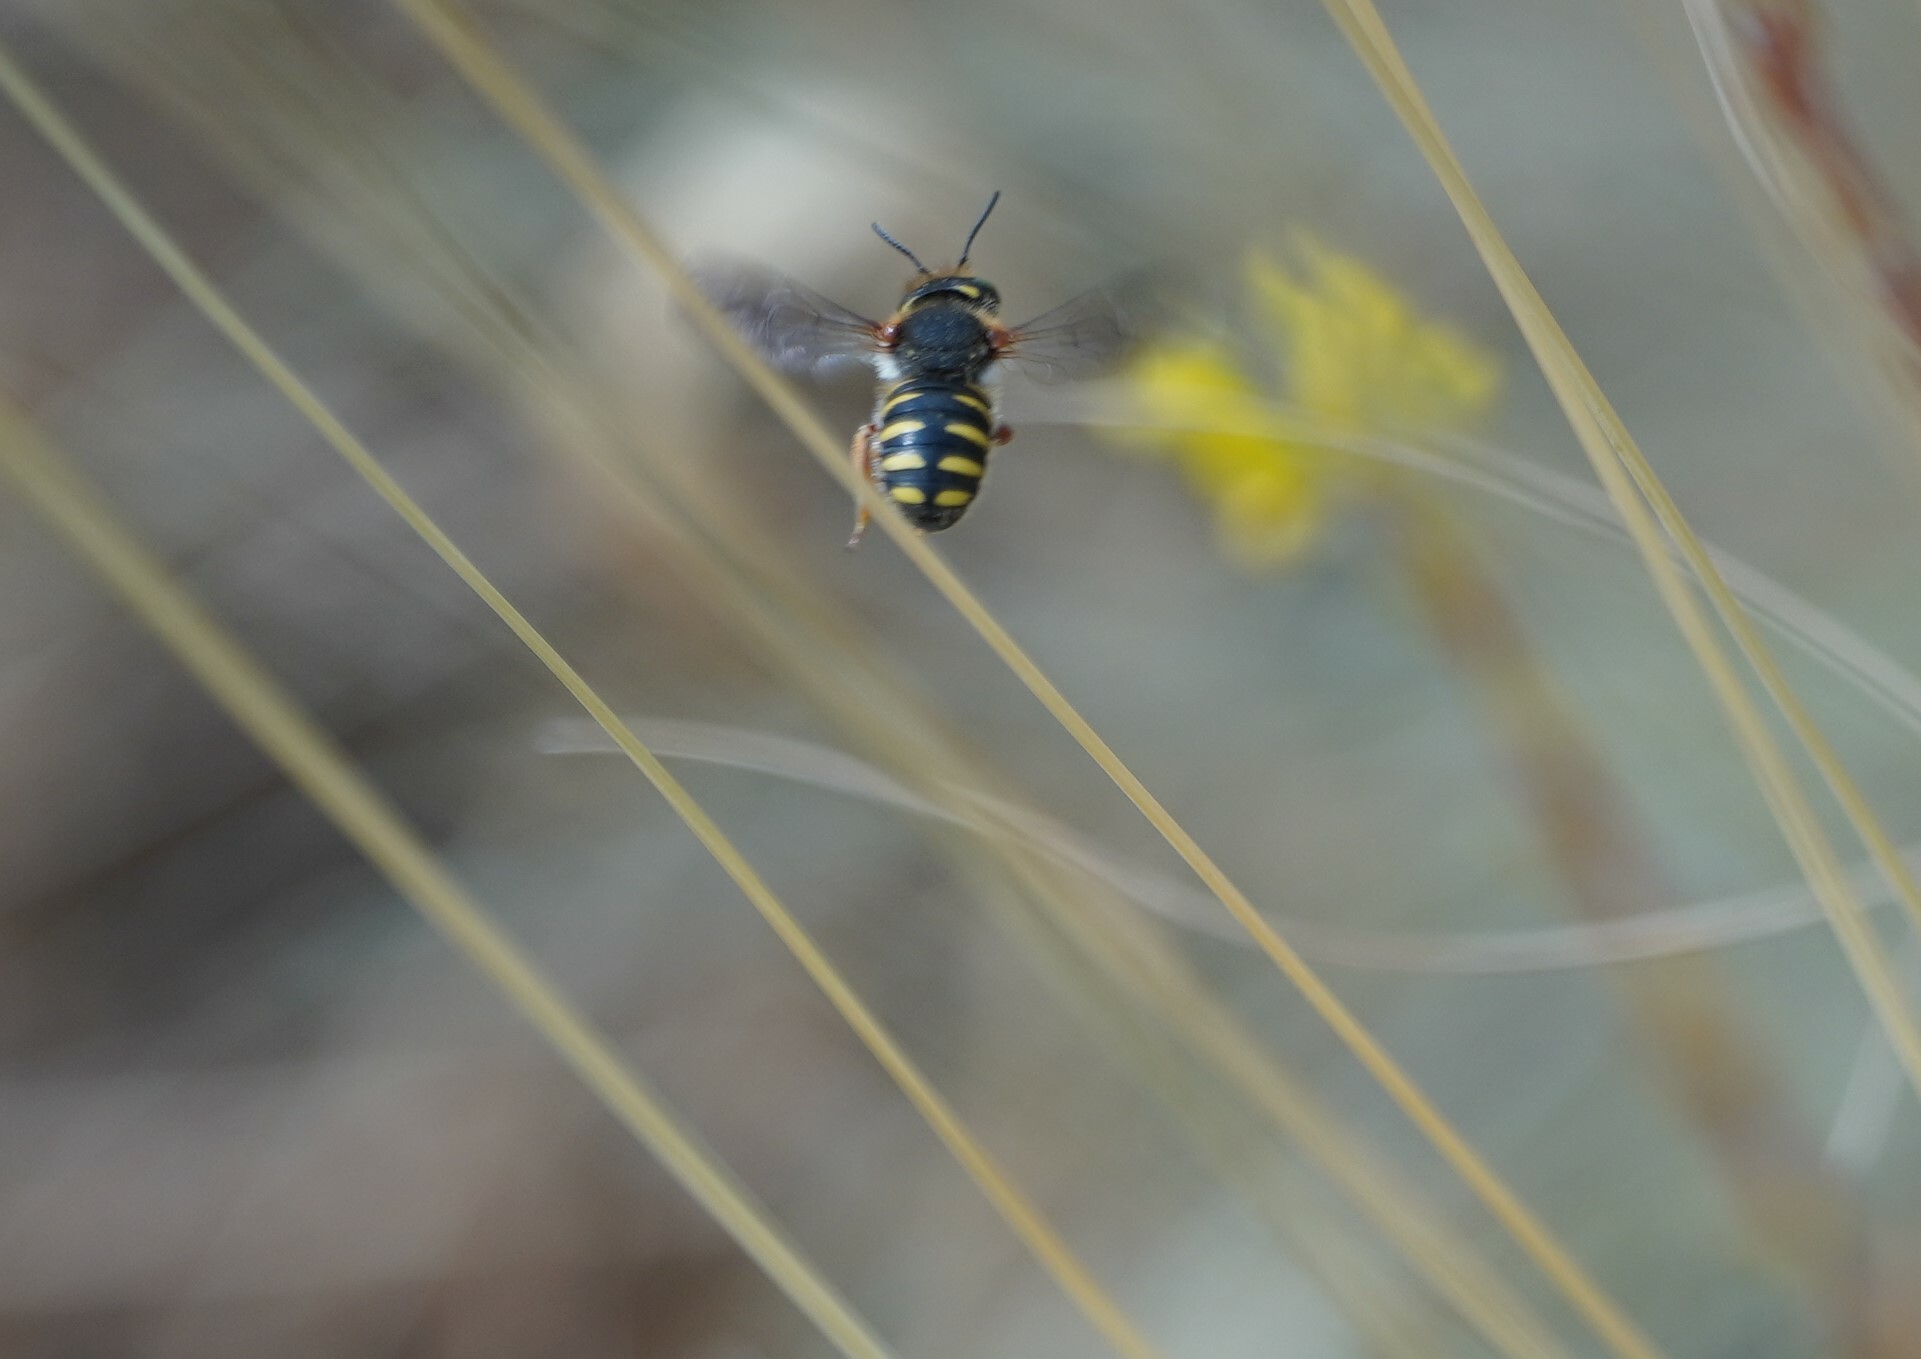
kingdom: Animalia
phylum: Arthropoda
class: Insecta
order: Hymenoptera
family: Megachilidae
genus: Anthidium
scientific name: Anthidium oblongatum
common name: Oblong wool carder bee
